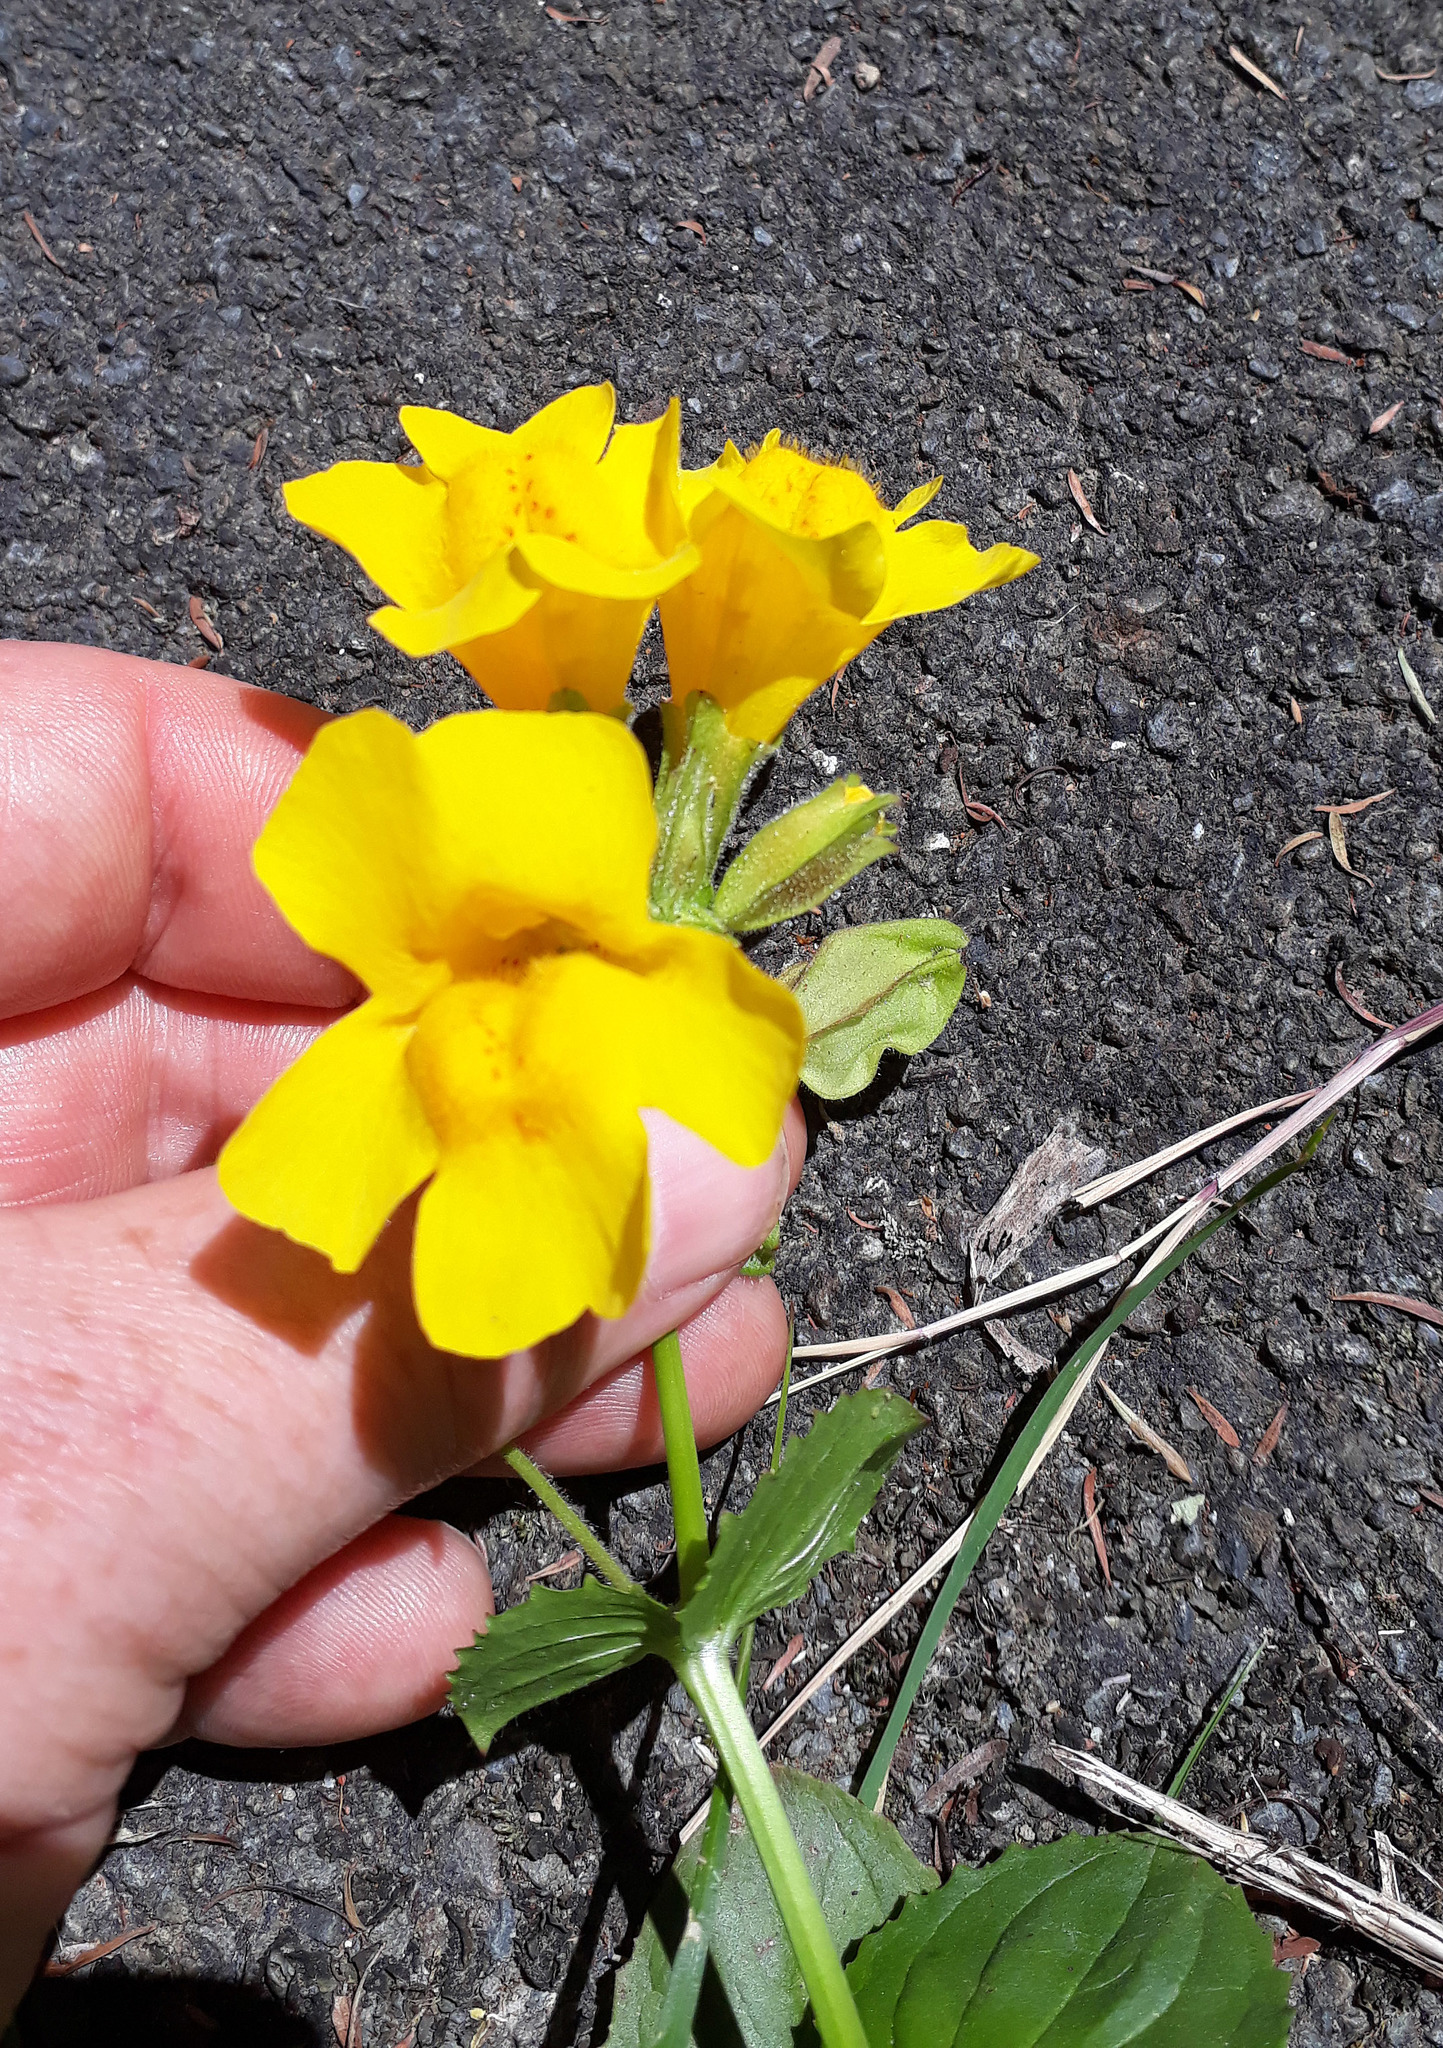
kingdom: Plantae
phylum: Tracheophyta
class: Magnoliopsida
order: Lamiales
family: Phrymaceae
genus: Erythranthe
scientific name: Erythranthe guttata
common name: Monkeyflower
